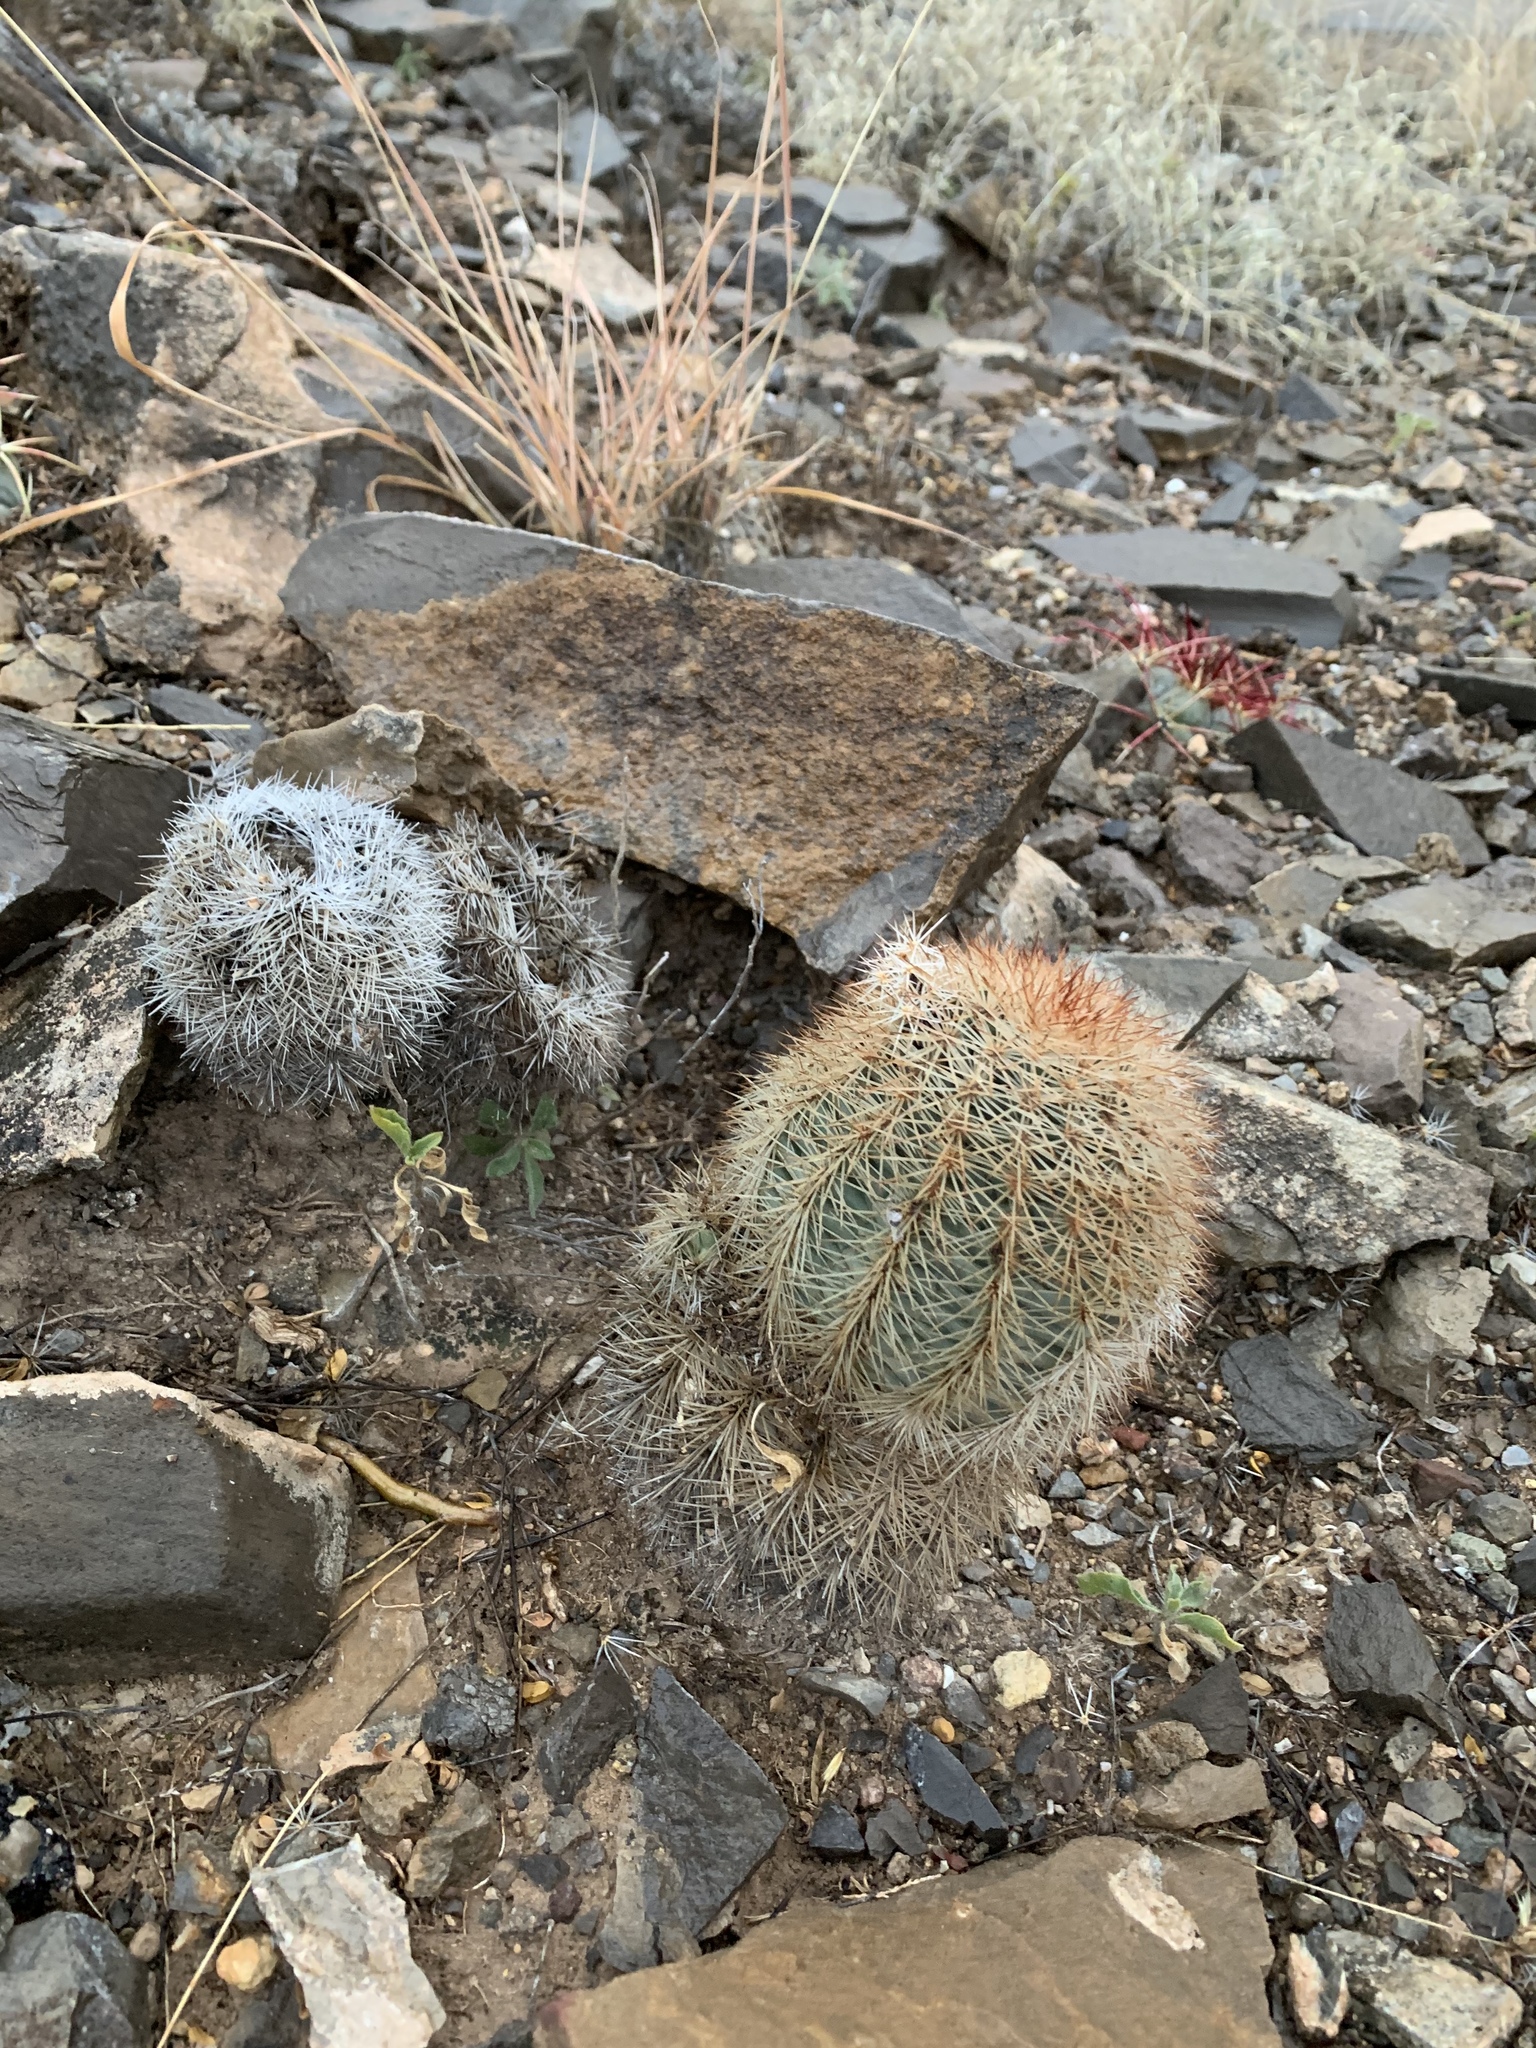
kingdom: Plantae
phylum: Tracheophyta
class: Magnoliopsida
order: Caryophyllales
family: Cactaceae
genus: Echinocereus
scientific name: Echinocereus dasyacanthus
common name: Spiny hedgehog cactus
